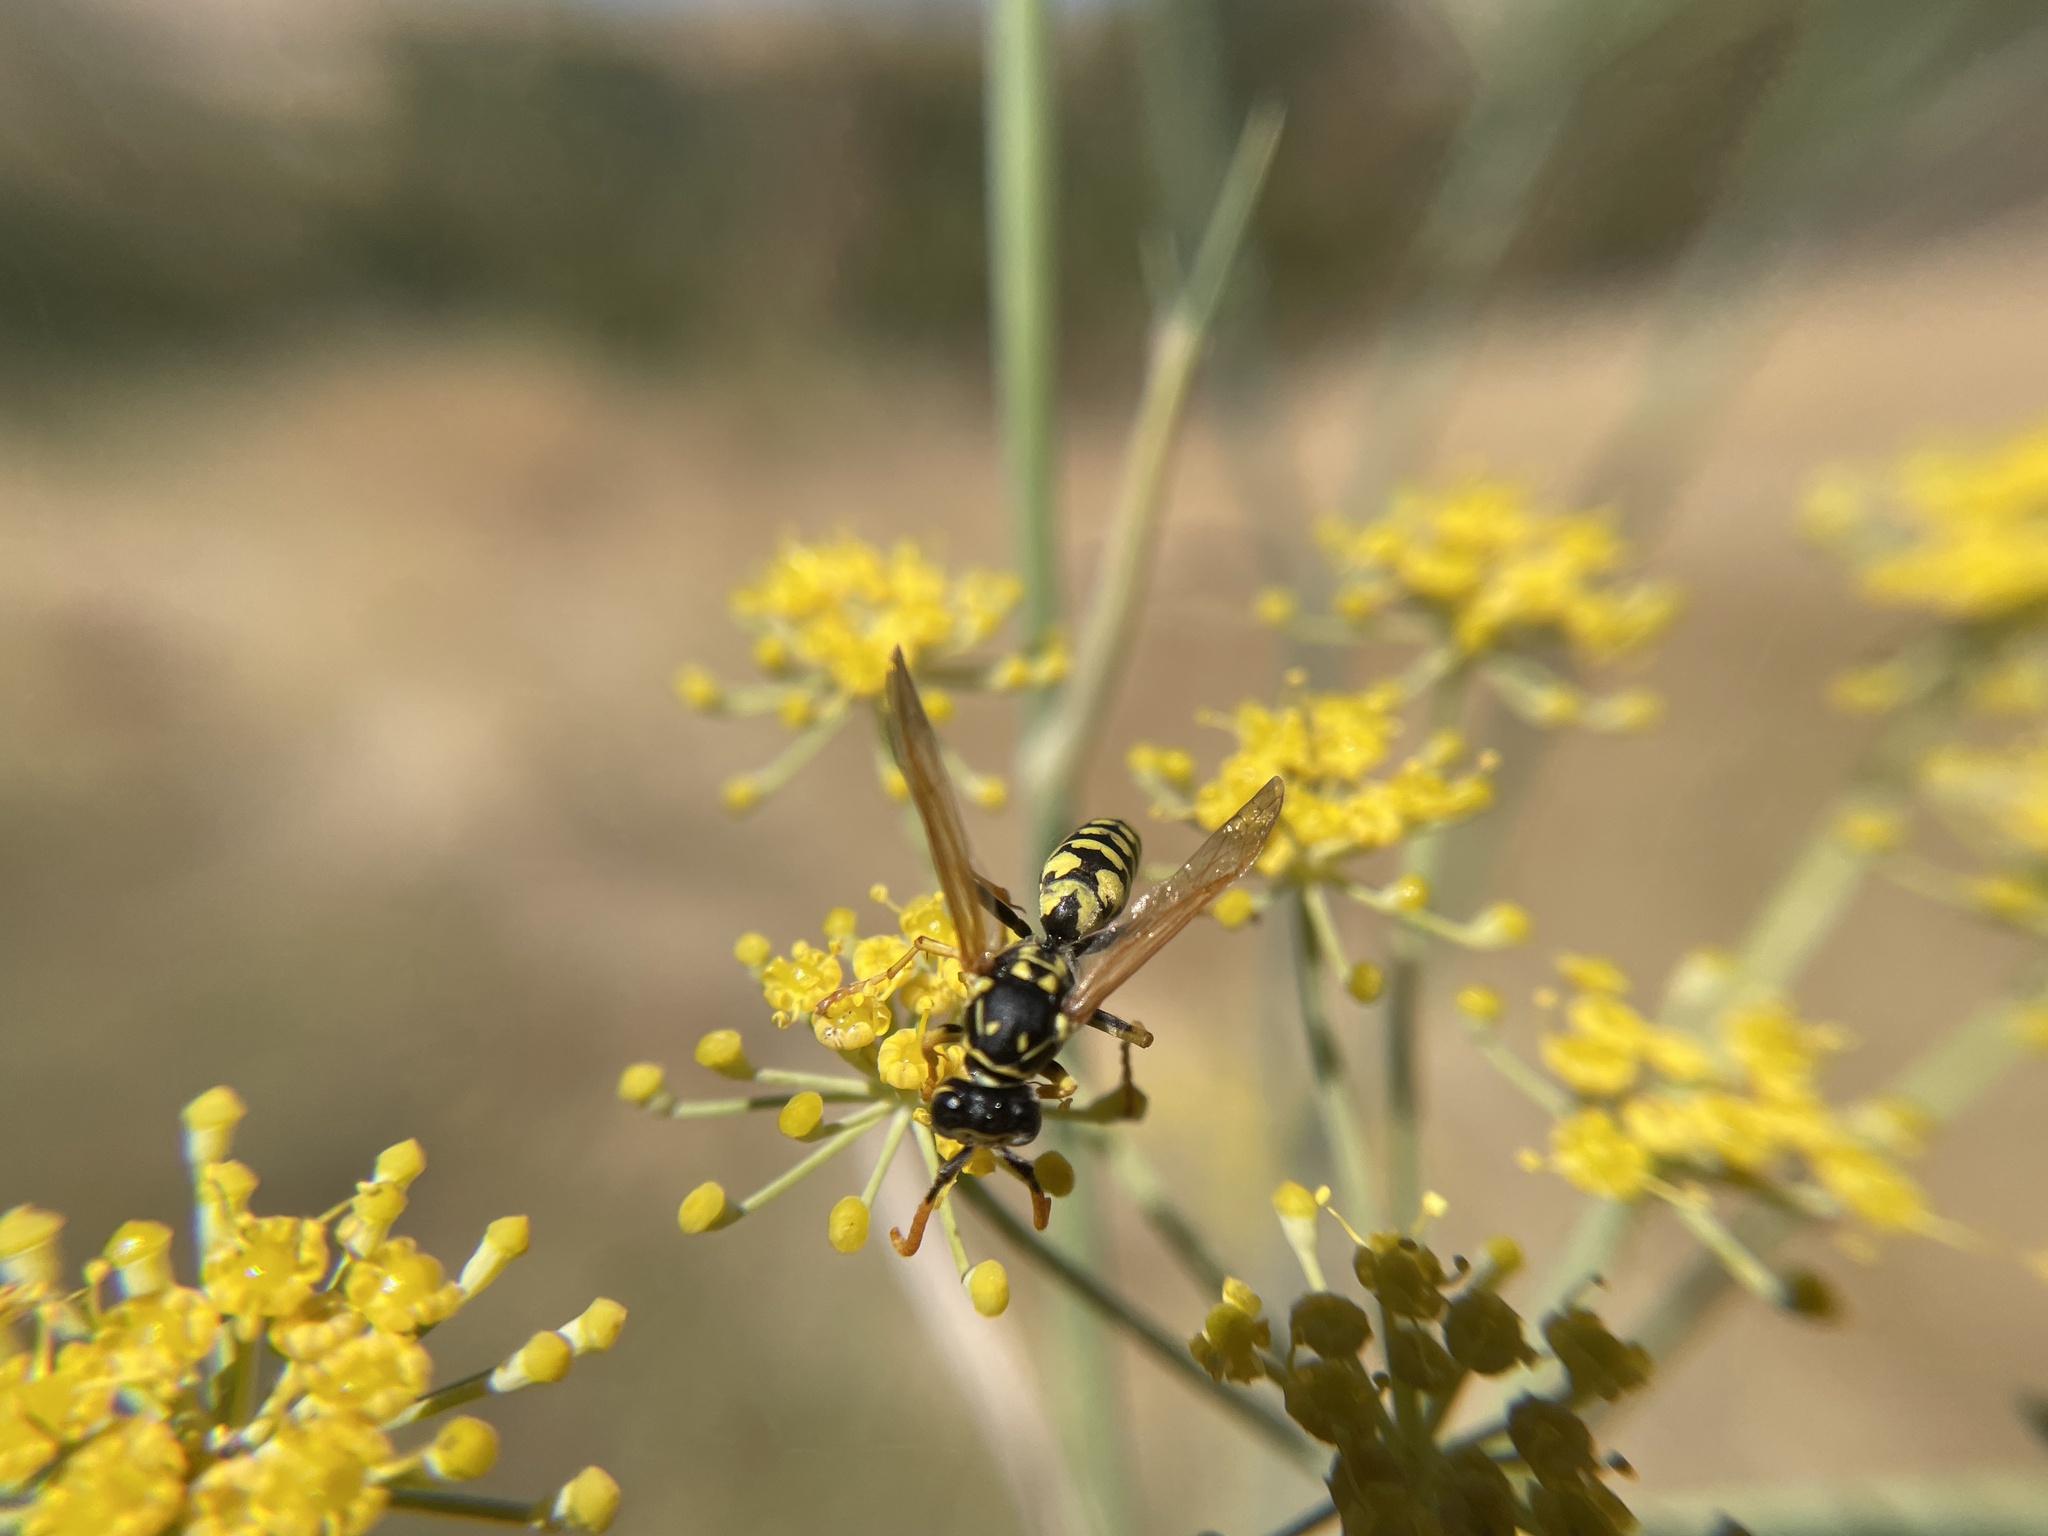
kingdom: Animalia
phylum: Arthropoda
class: Insecta
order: Hymenoptera
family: Eumenidae
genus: Polistes
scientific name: Polistes dominula
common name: Paper wasp
